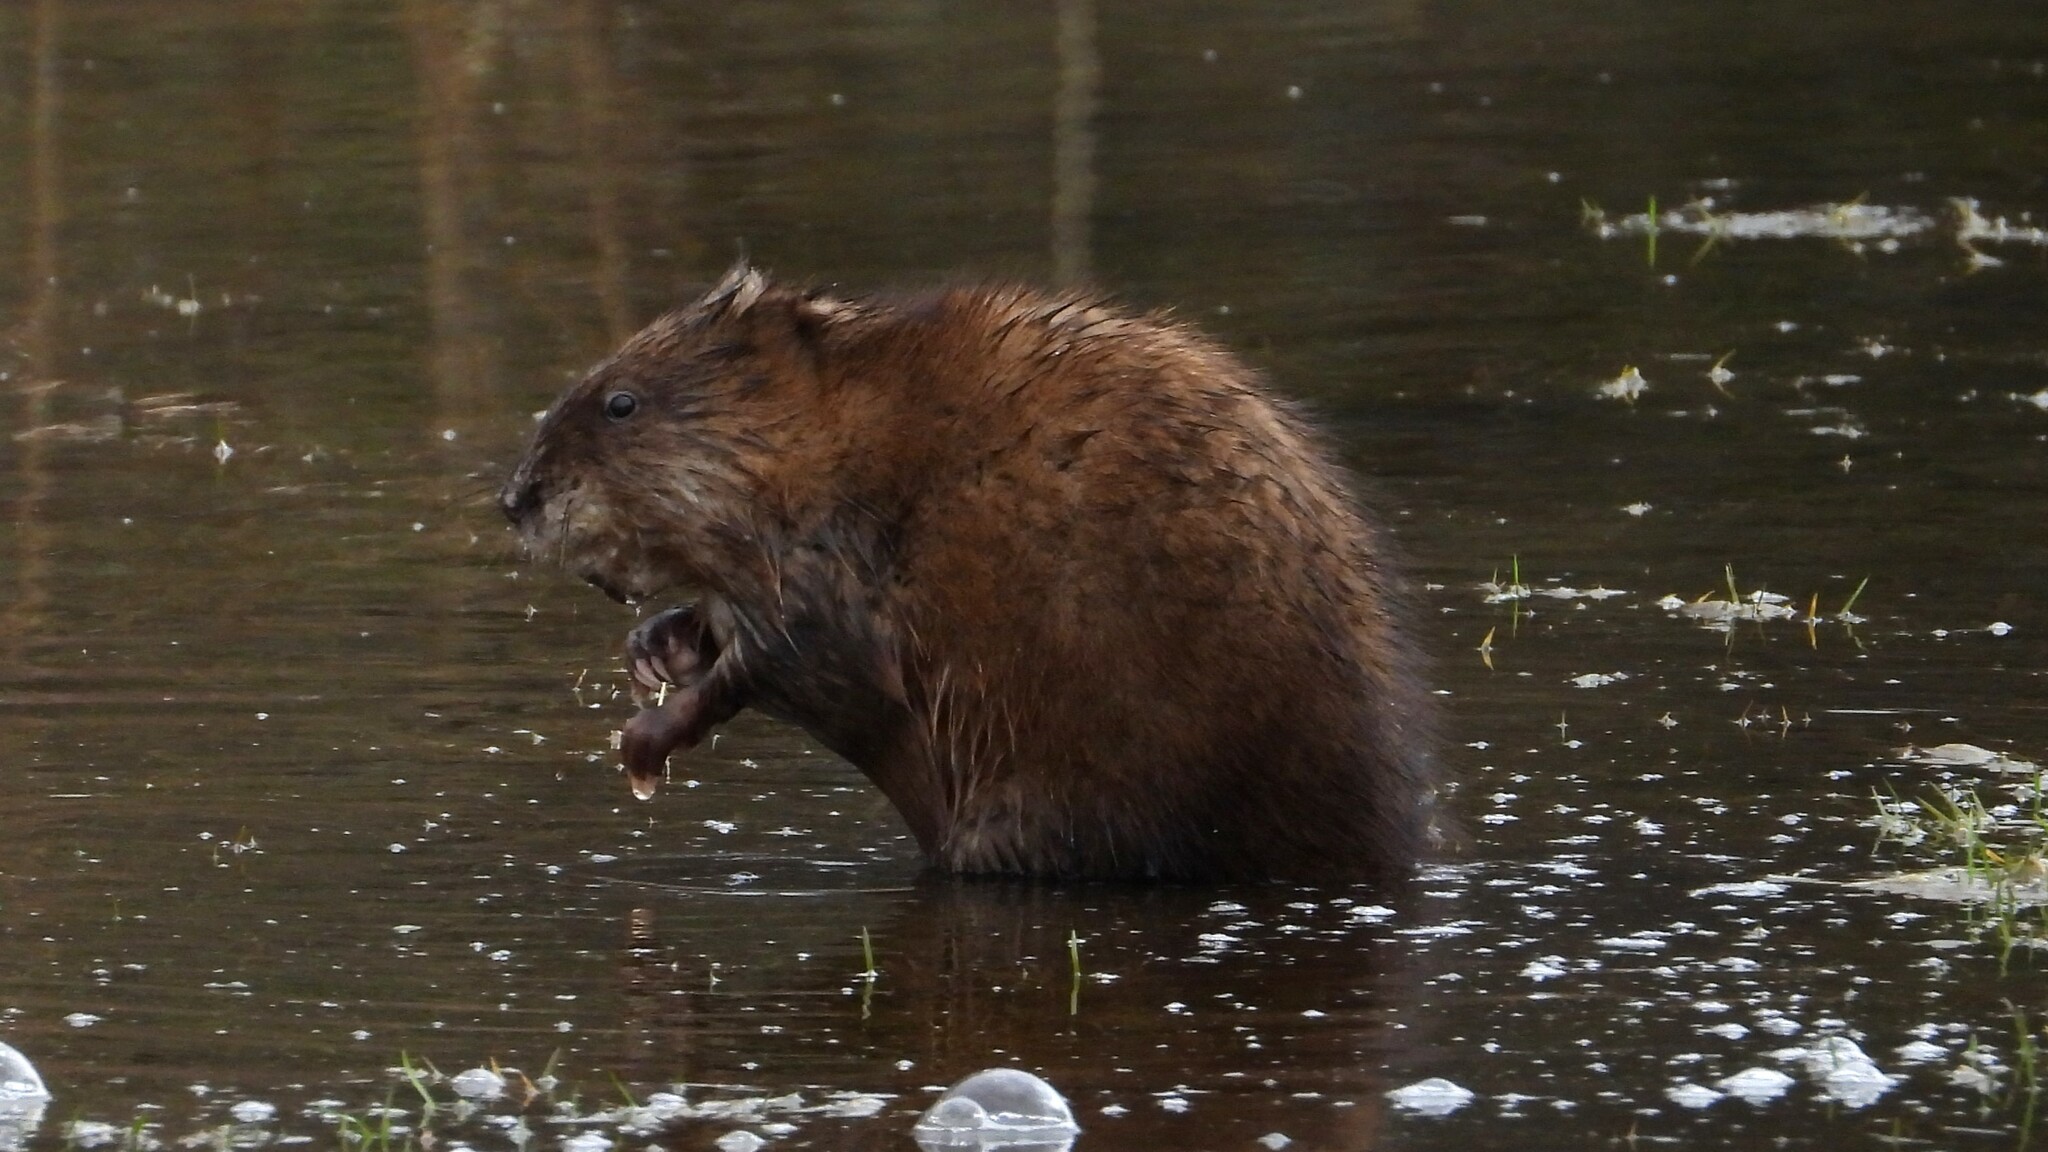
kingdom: Animalia
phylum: Chordata
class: Mammalia
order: Rodentia
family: Cricetidae
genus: Ondatra
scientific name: Ondatra zibethicus
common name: Muskrat
